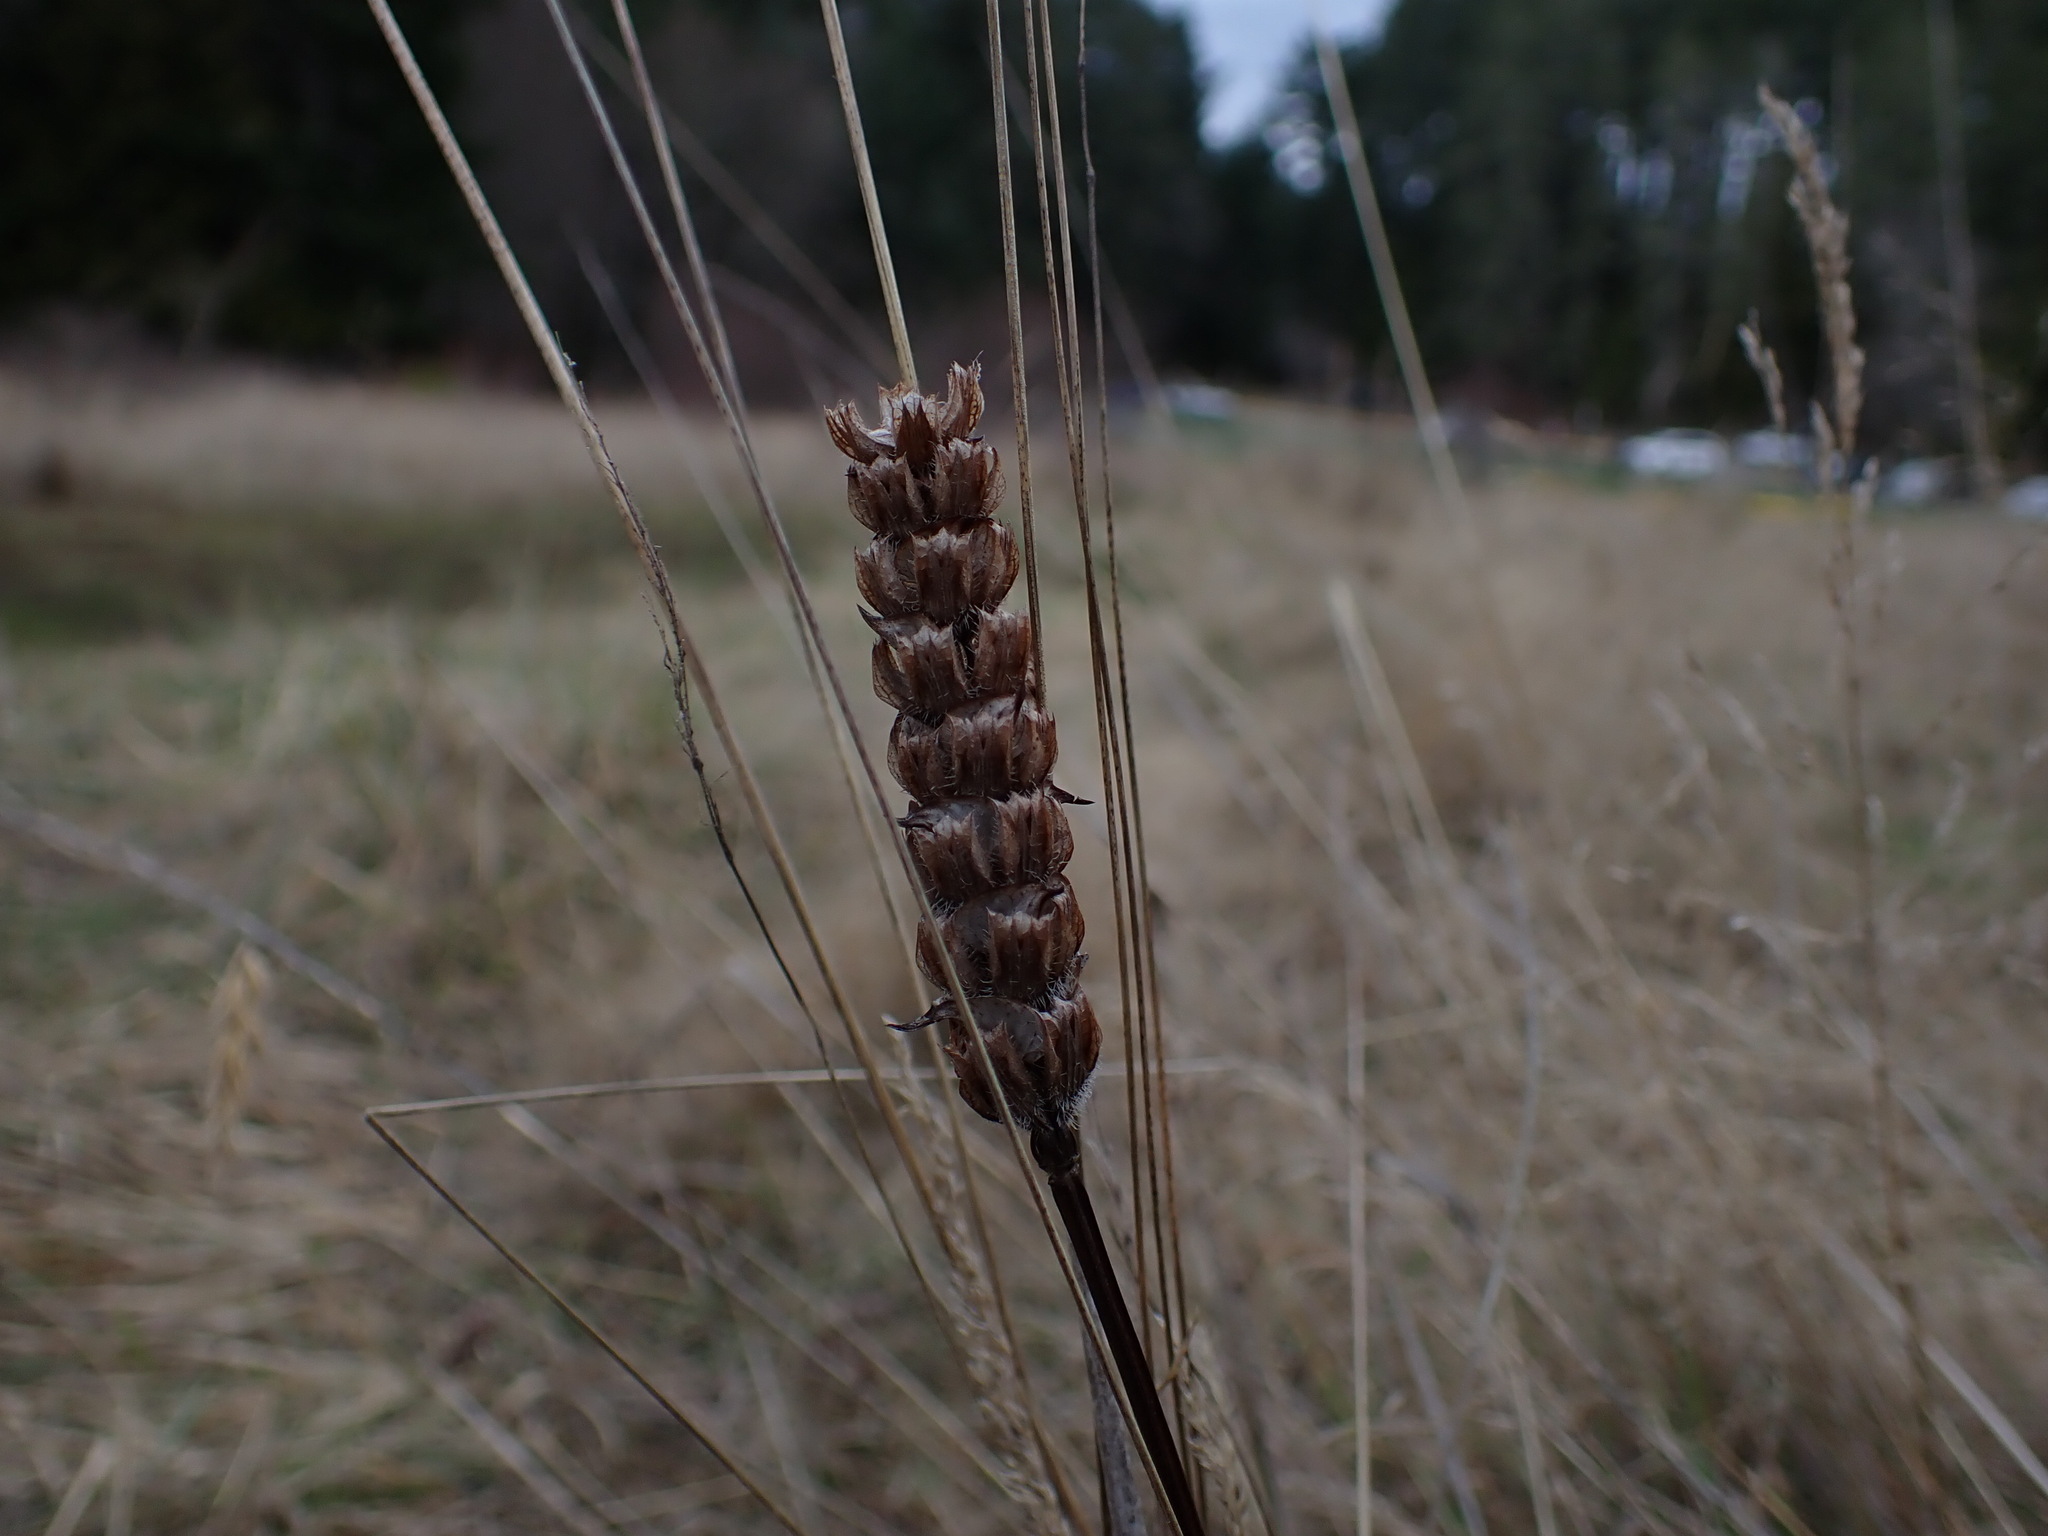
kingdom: Plantae
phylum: Tracheophyta
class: Magnoliopsida
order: Lamiales
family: Lamiaceae
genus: Prunella
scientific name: Prunella vulgaris
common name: Heal-all
